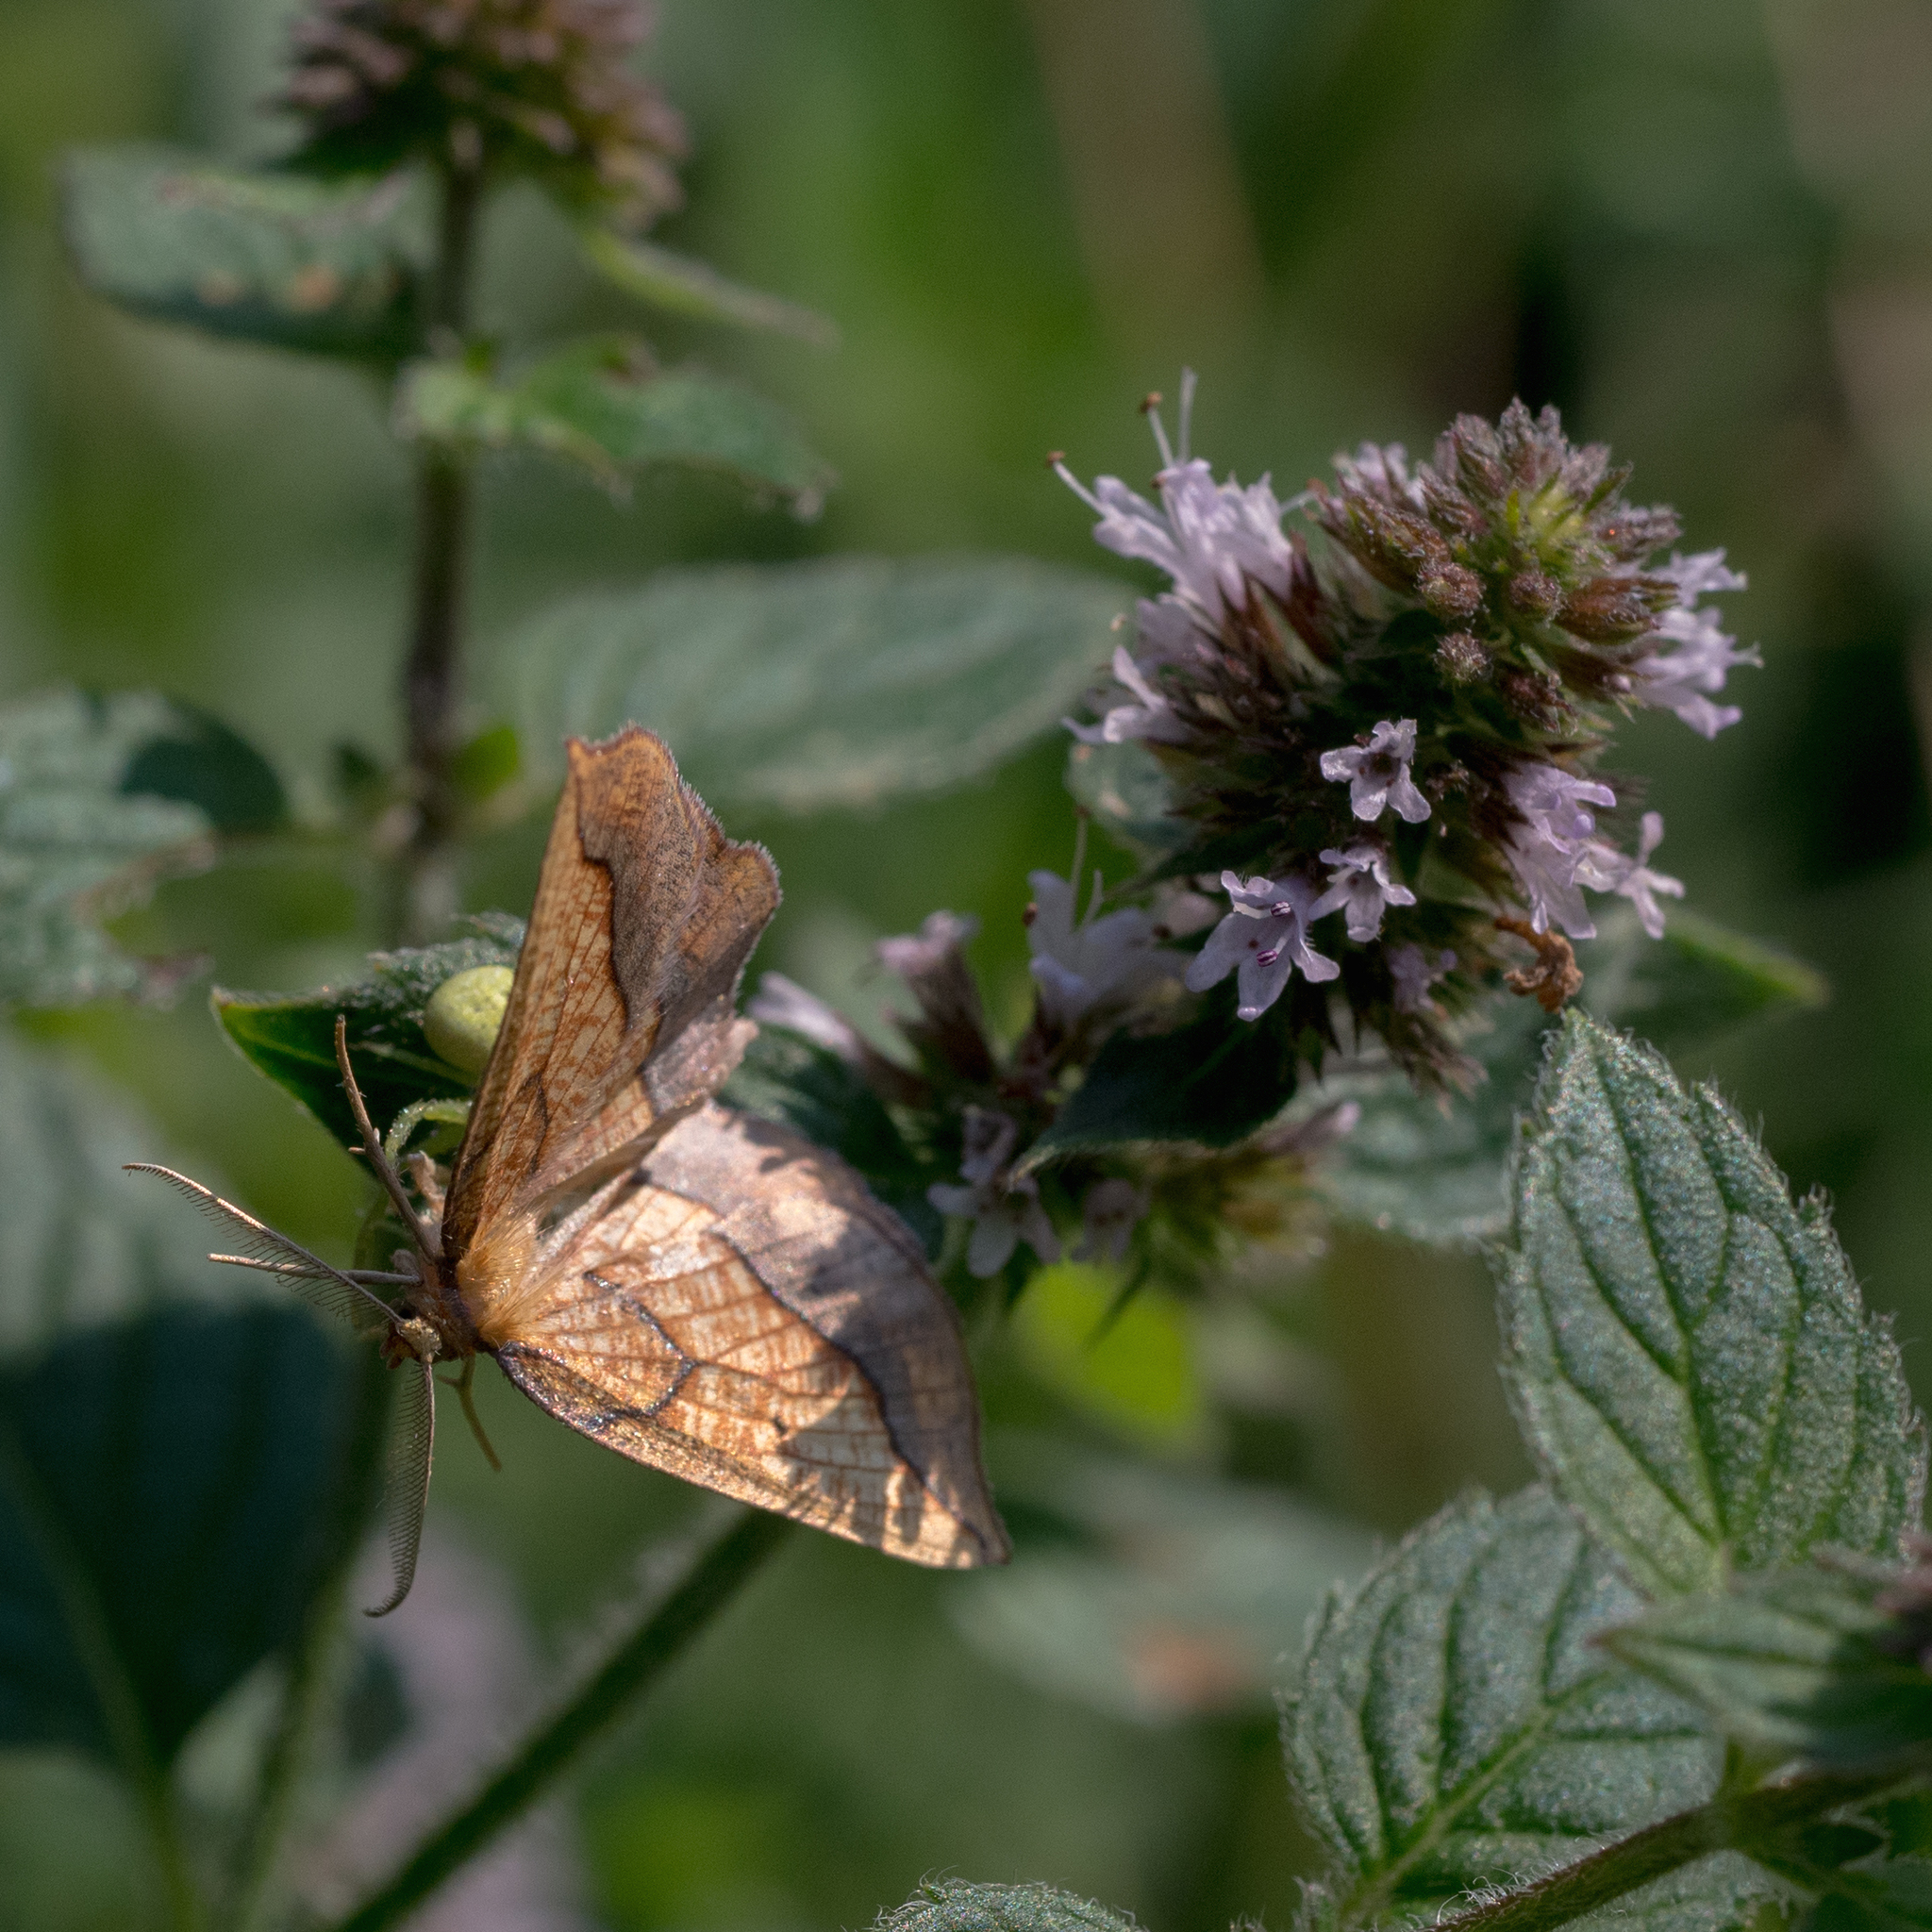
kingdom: Animalia
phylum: Arthropoda
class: Insecta
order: Lepidoptera
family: Geometridae
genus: Epione
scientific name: Epione repandaria
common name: Bordered beauty
